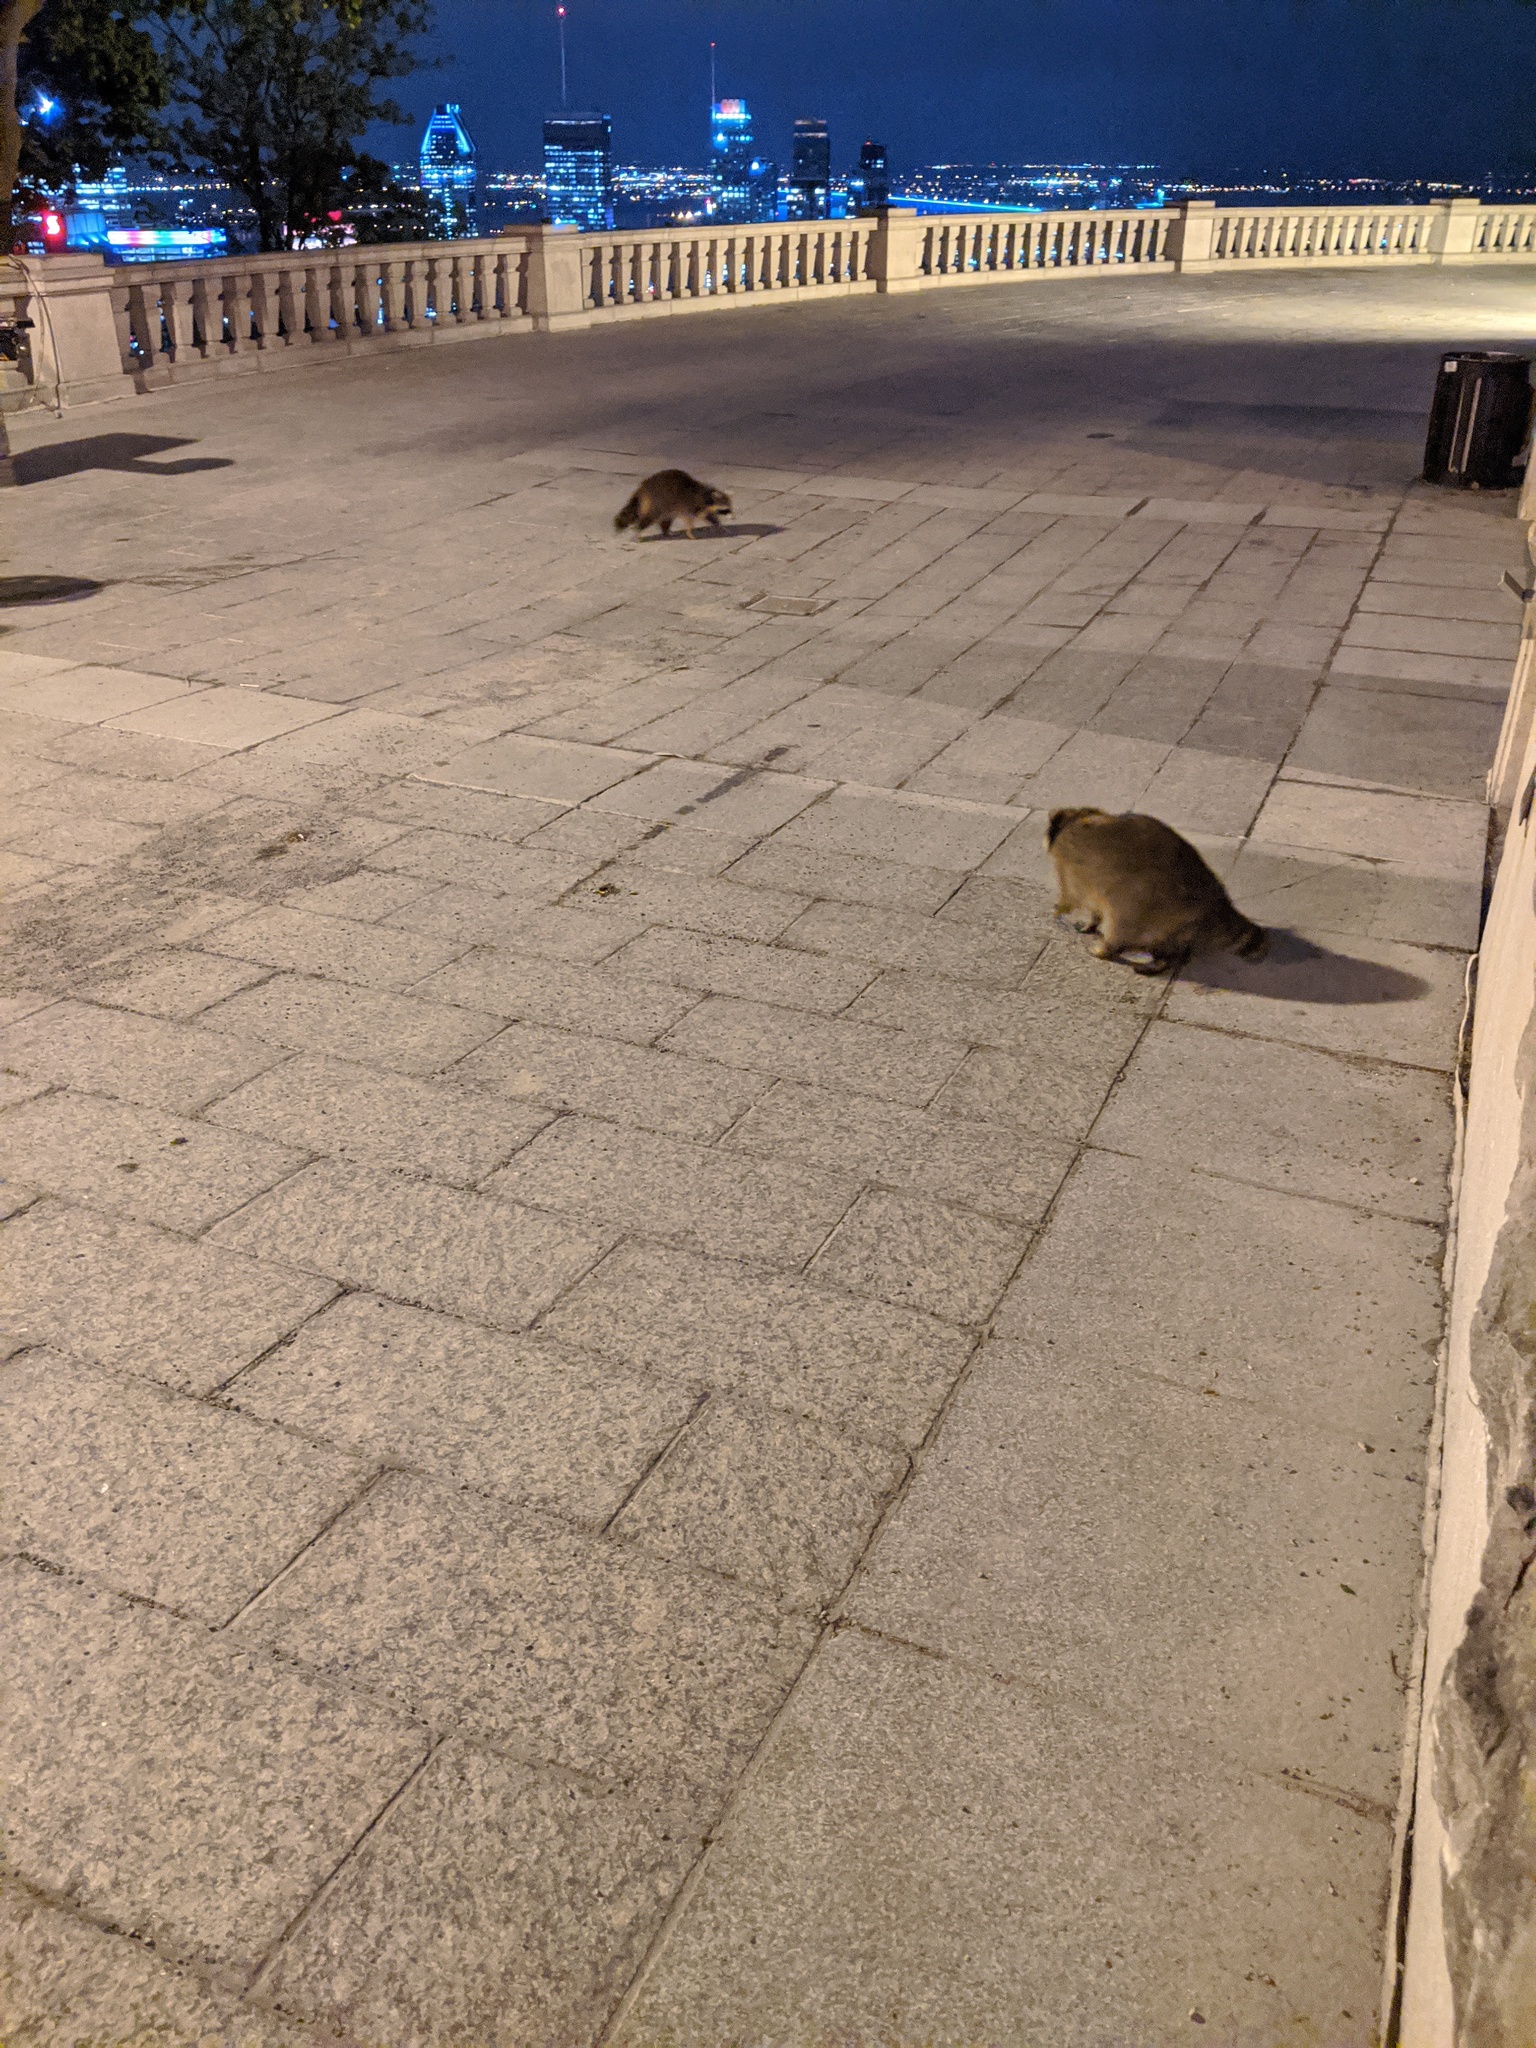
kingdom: Animalia
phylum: Chordata
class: Mammalia
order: Carnivora
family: Procyonidae
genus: Procyon
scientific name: Procyon lotor
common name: Raccoon
